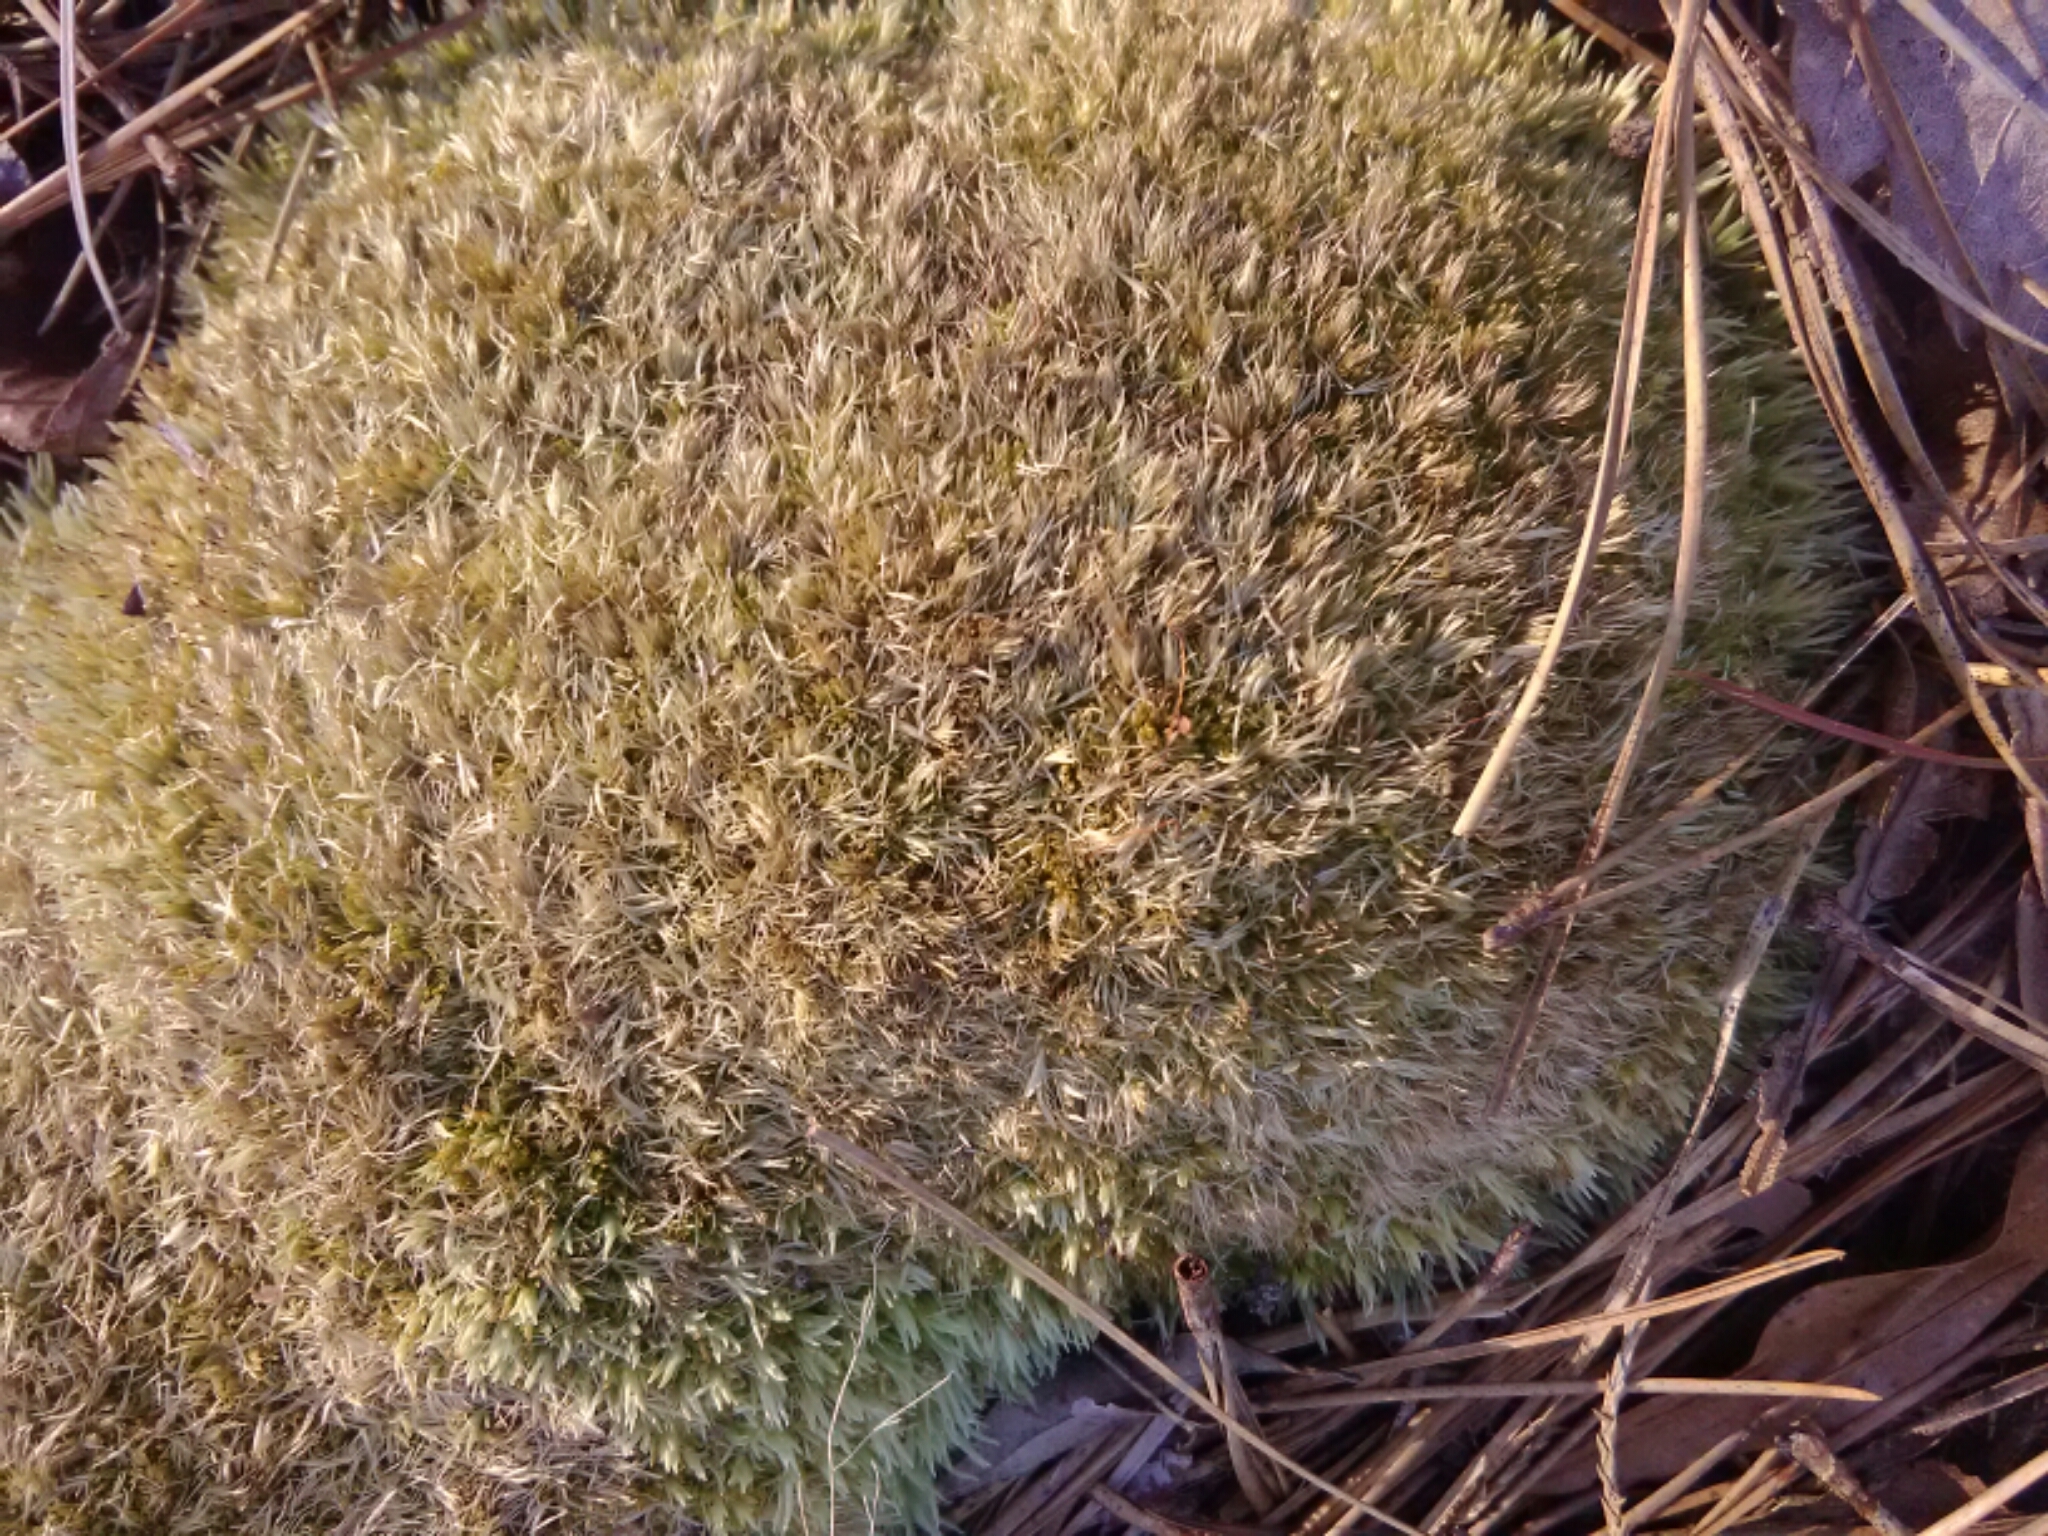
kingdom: Plantae
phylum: Bryophyta
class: Bryopsida
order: Dicranales
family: Leucobryaceae
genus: Leucobryum
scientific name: Leucobryum glaucum
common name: Large white-moss
